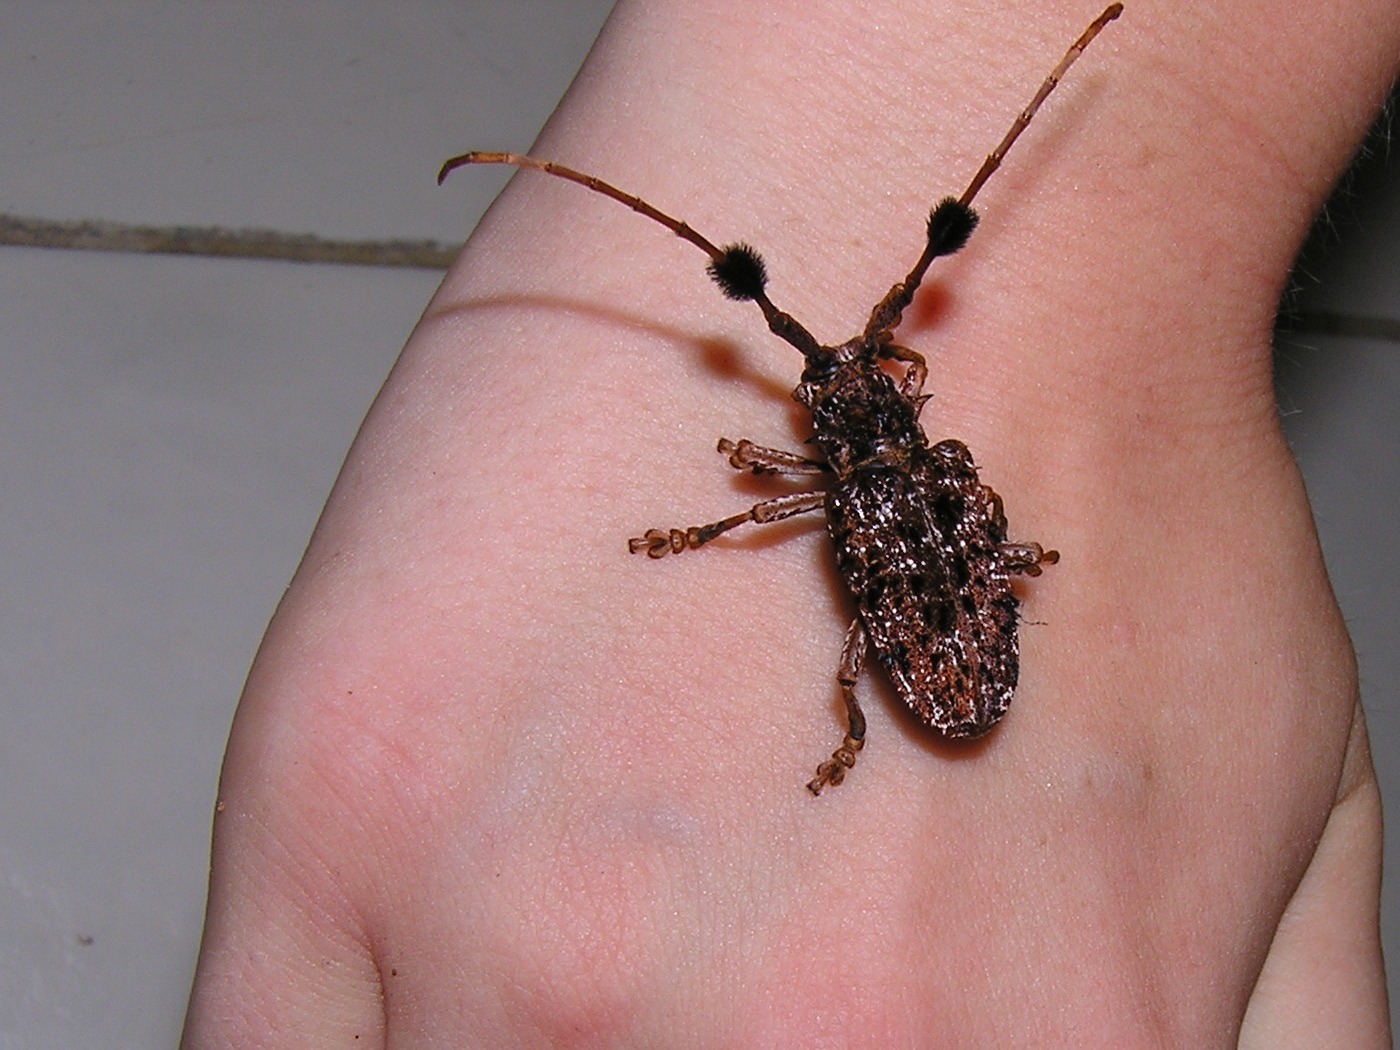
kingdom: Animalia
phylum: Arthropoda
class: Insecta
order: Coleoptera
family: Cerambycidae
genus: Aristobia
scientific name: Aristobia freneyi
